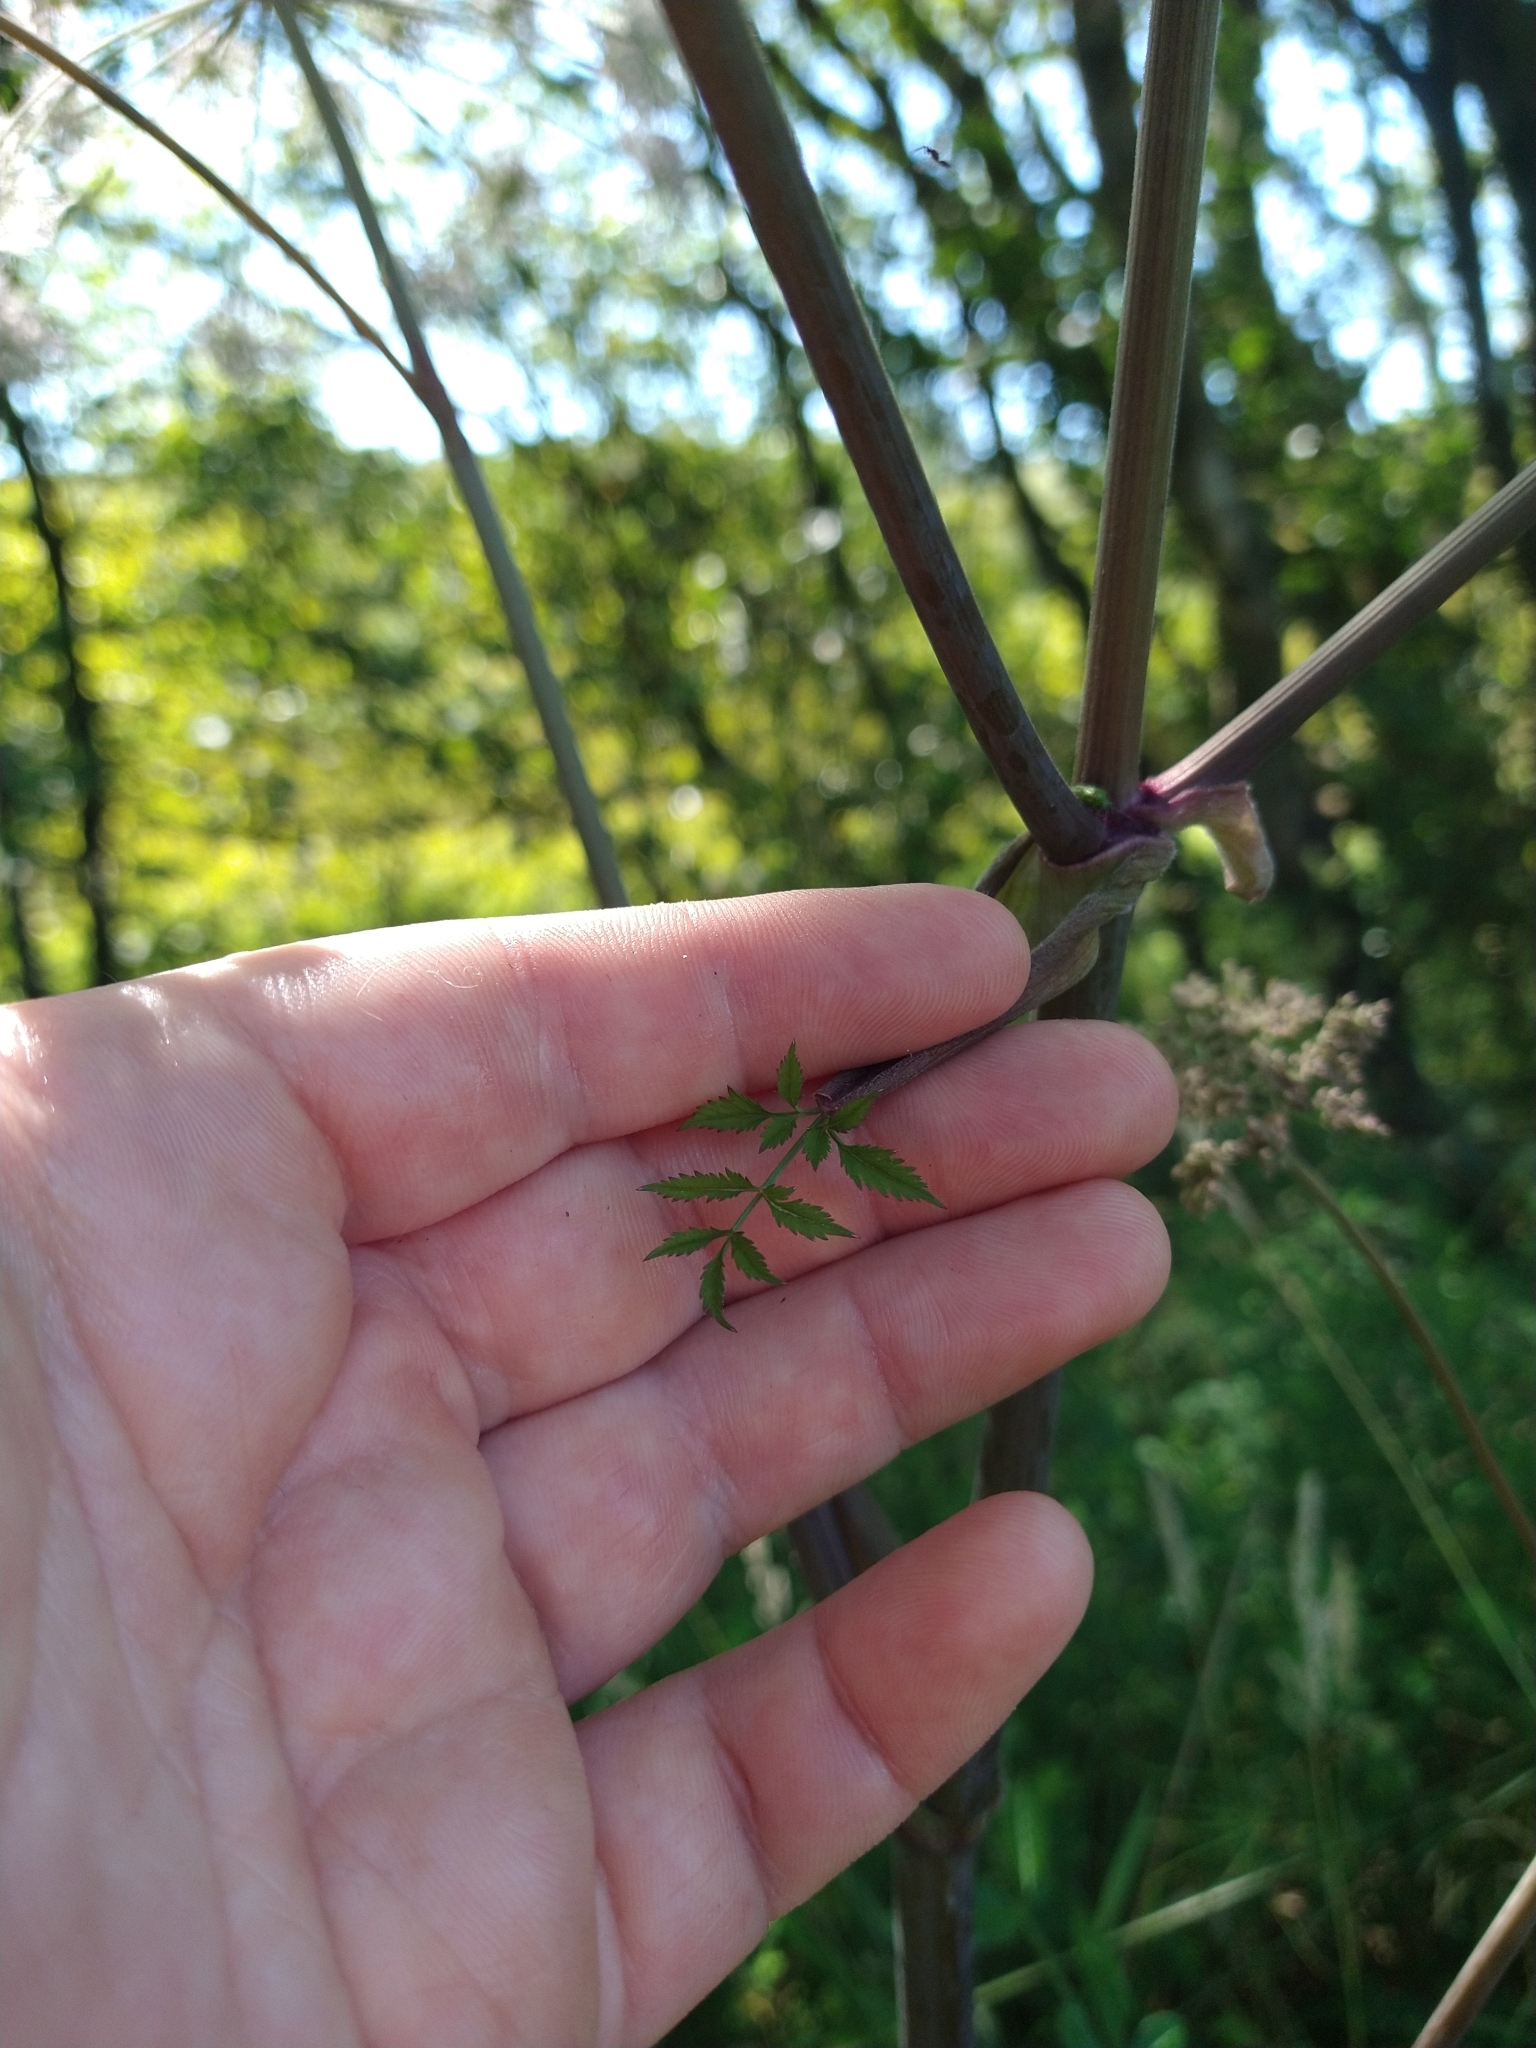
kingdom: Plantae
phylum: Tracheophyta
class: Magnoliopsida
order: Apiales
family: Apiaceae
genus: Angelica
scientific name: Angelica sylvestris
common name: Wild angelica
